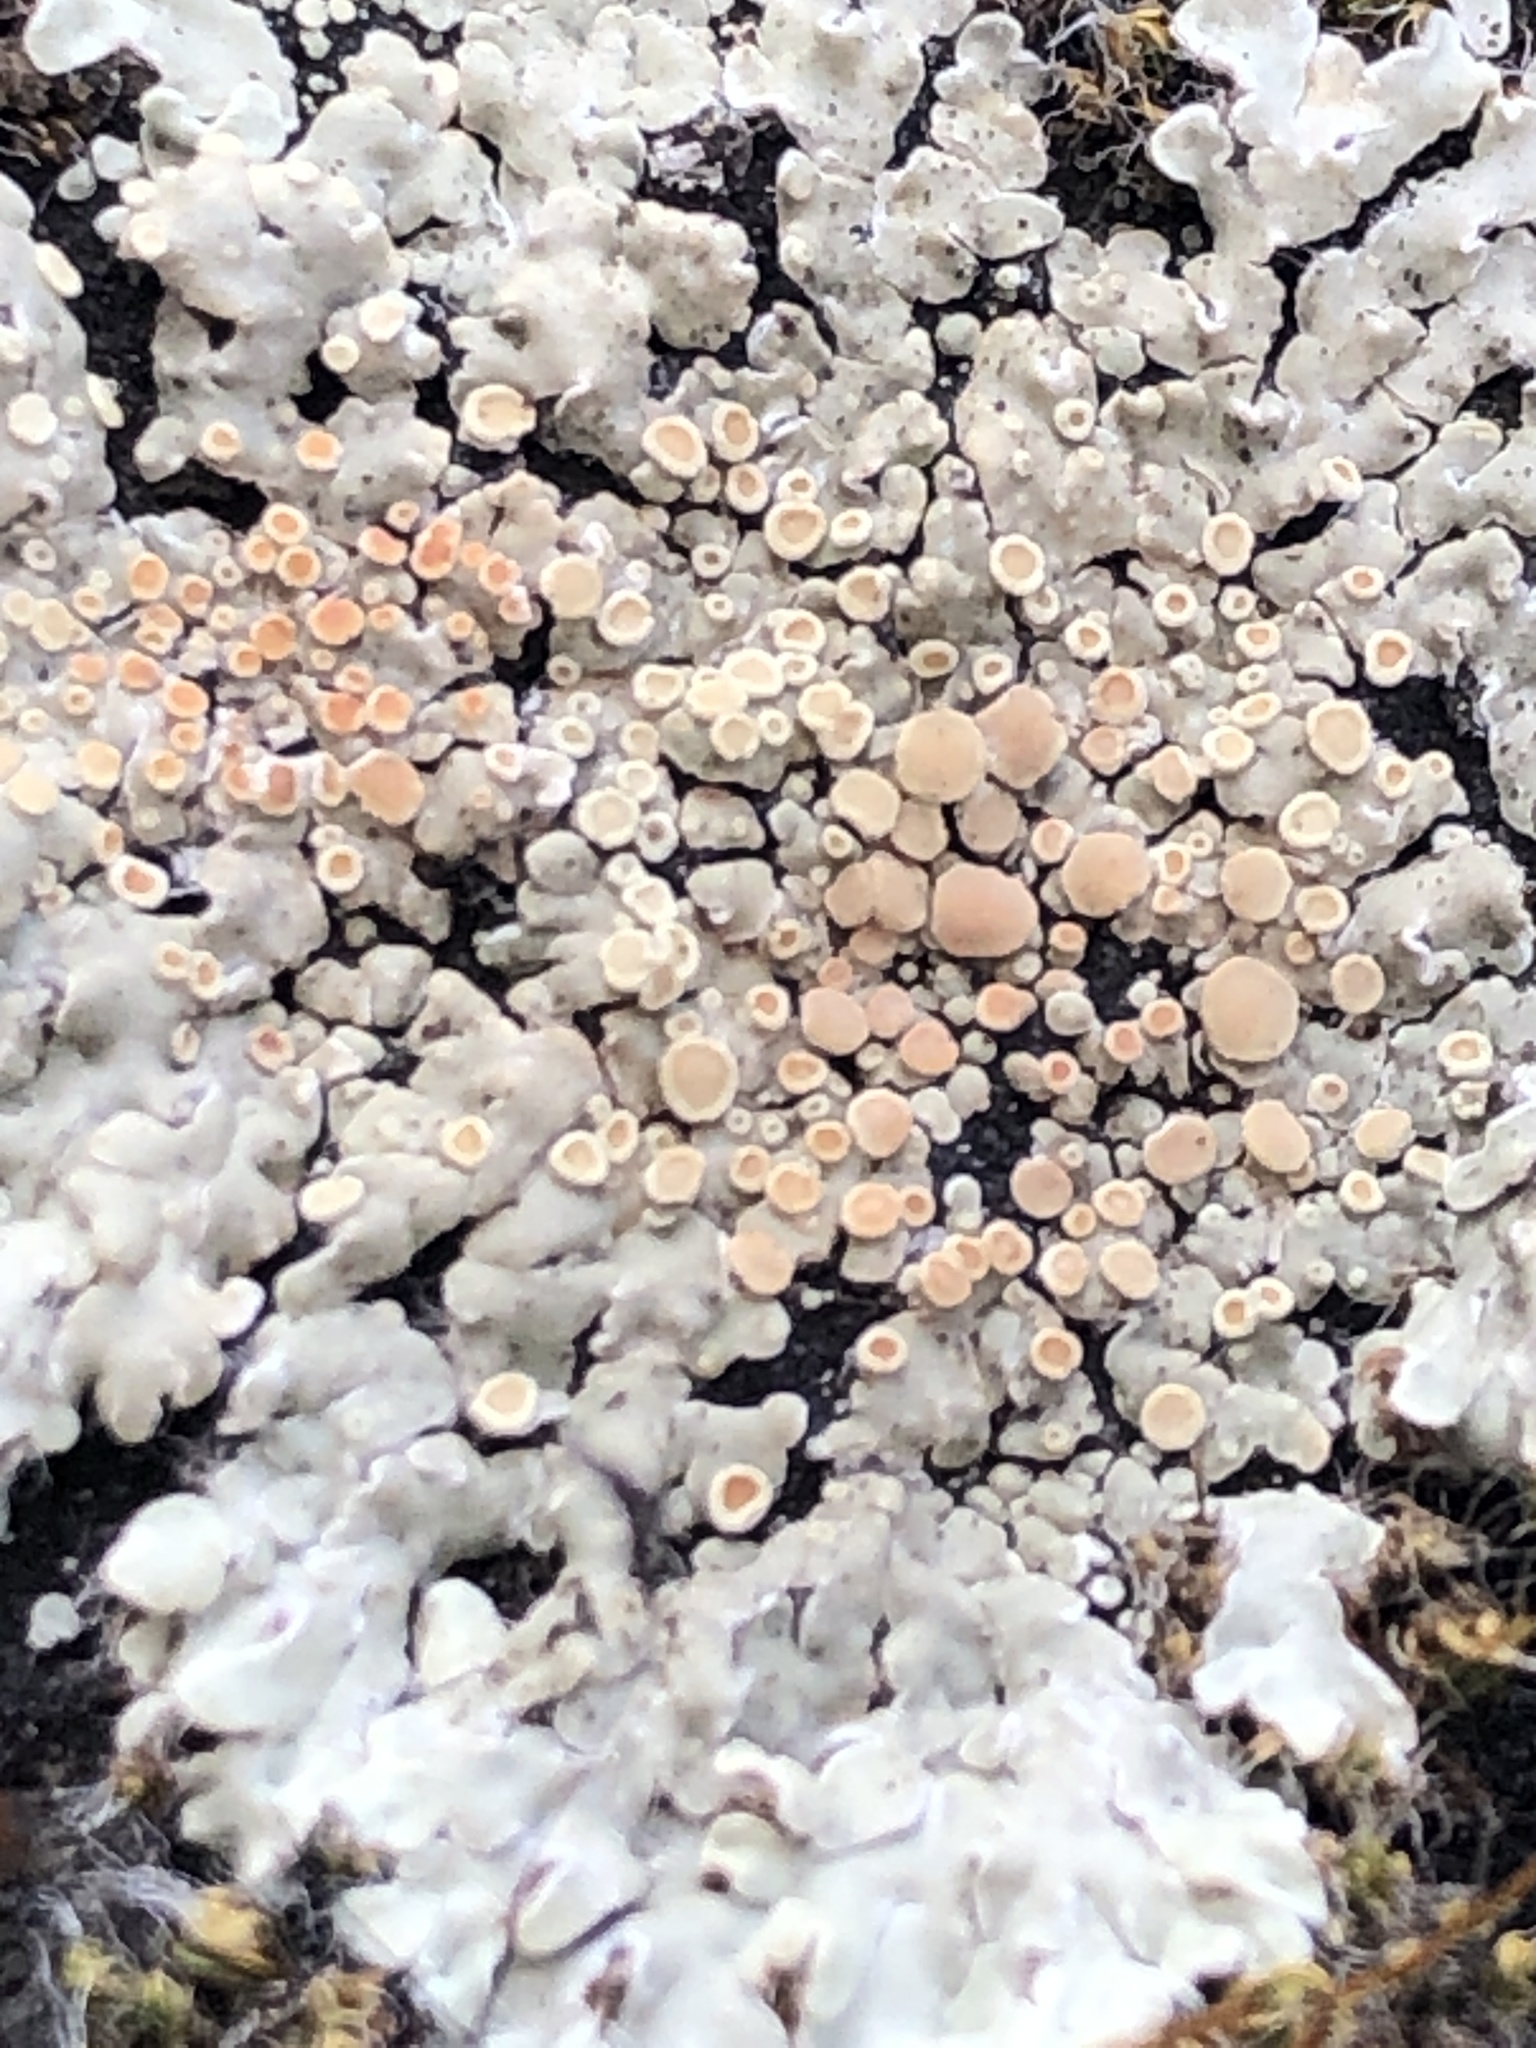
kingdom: Fungi
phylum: Ascomycota
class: Lecanoromycetes
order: Lecanorales
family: Lecanoraceae
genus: Protoparmeliopsis
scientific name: Protoparmeliopsis muralis
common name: Stonewall rim lichen
